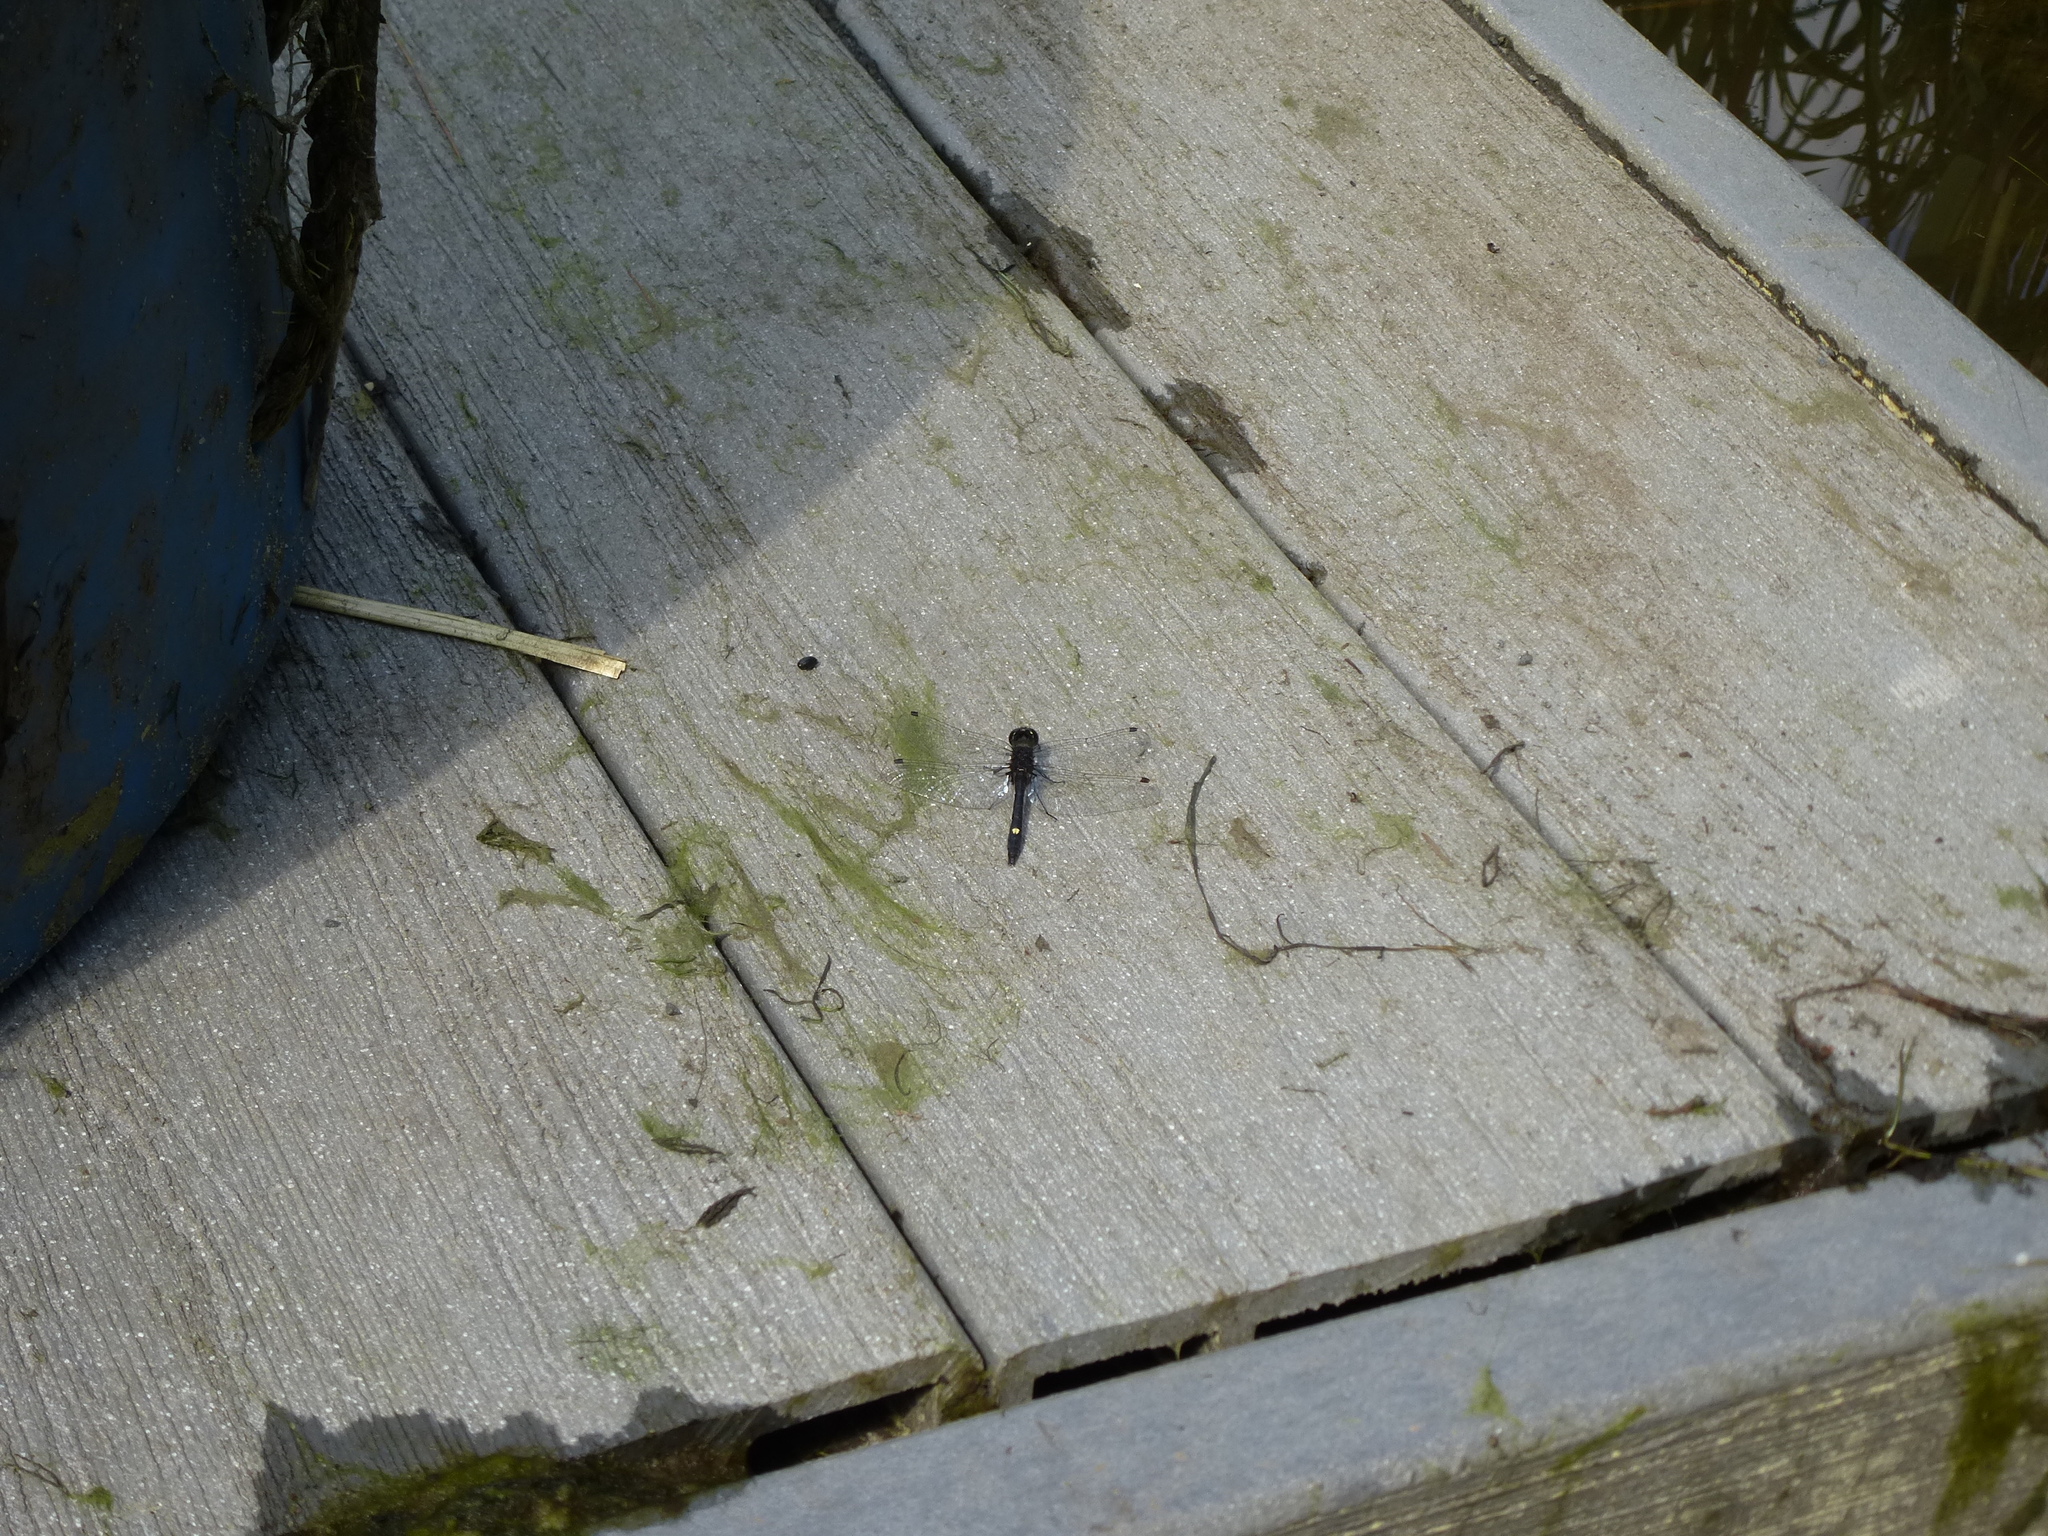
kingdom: Animalia
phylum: Arthropoda
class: Insecta
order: Odonata
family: Libellulidae
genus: Leucorrhinia
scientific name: Leucorrhinia intacta
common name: Dot-tailed whiteface
